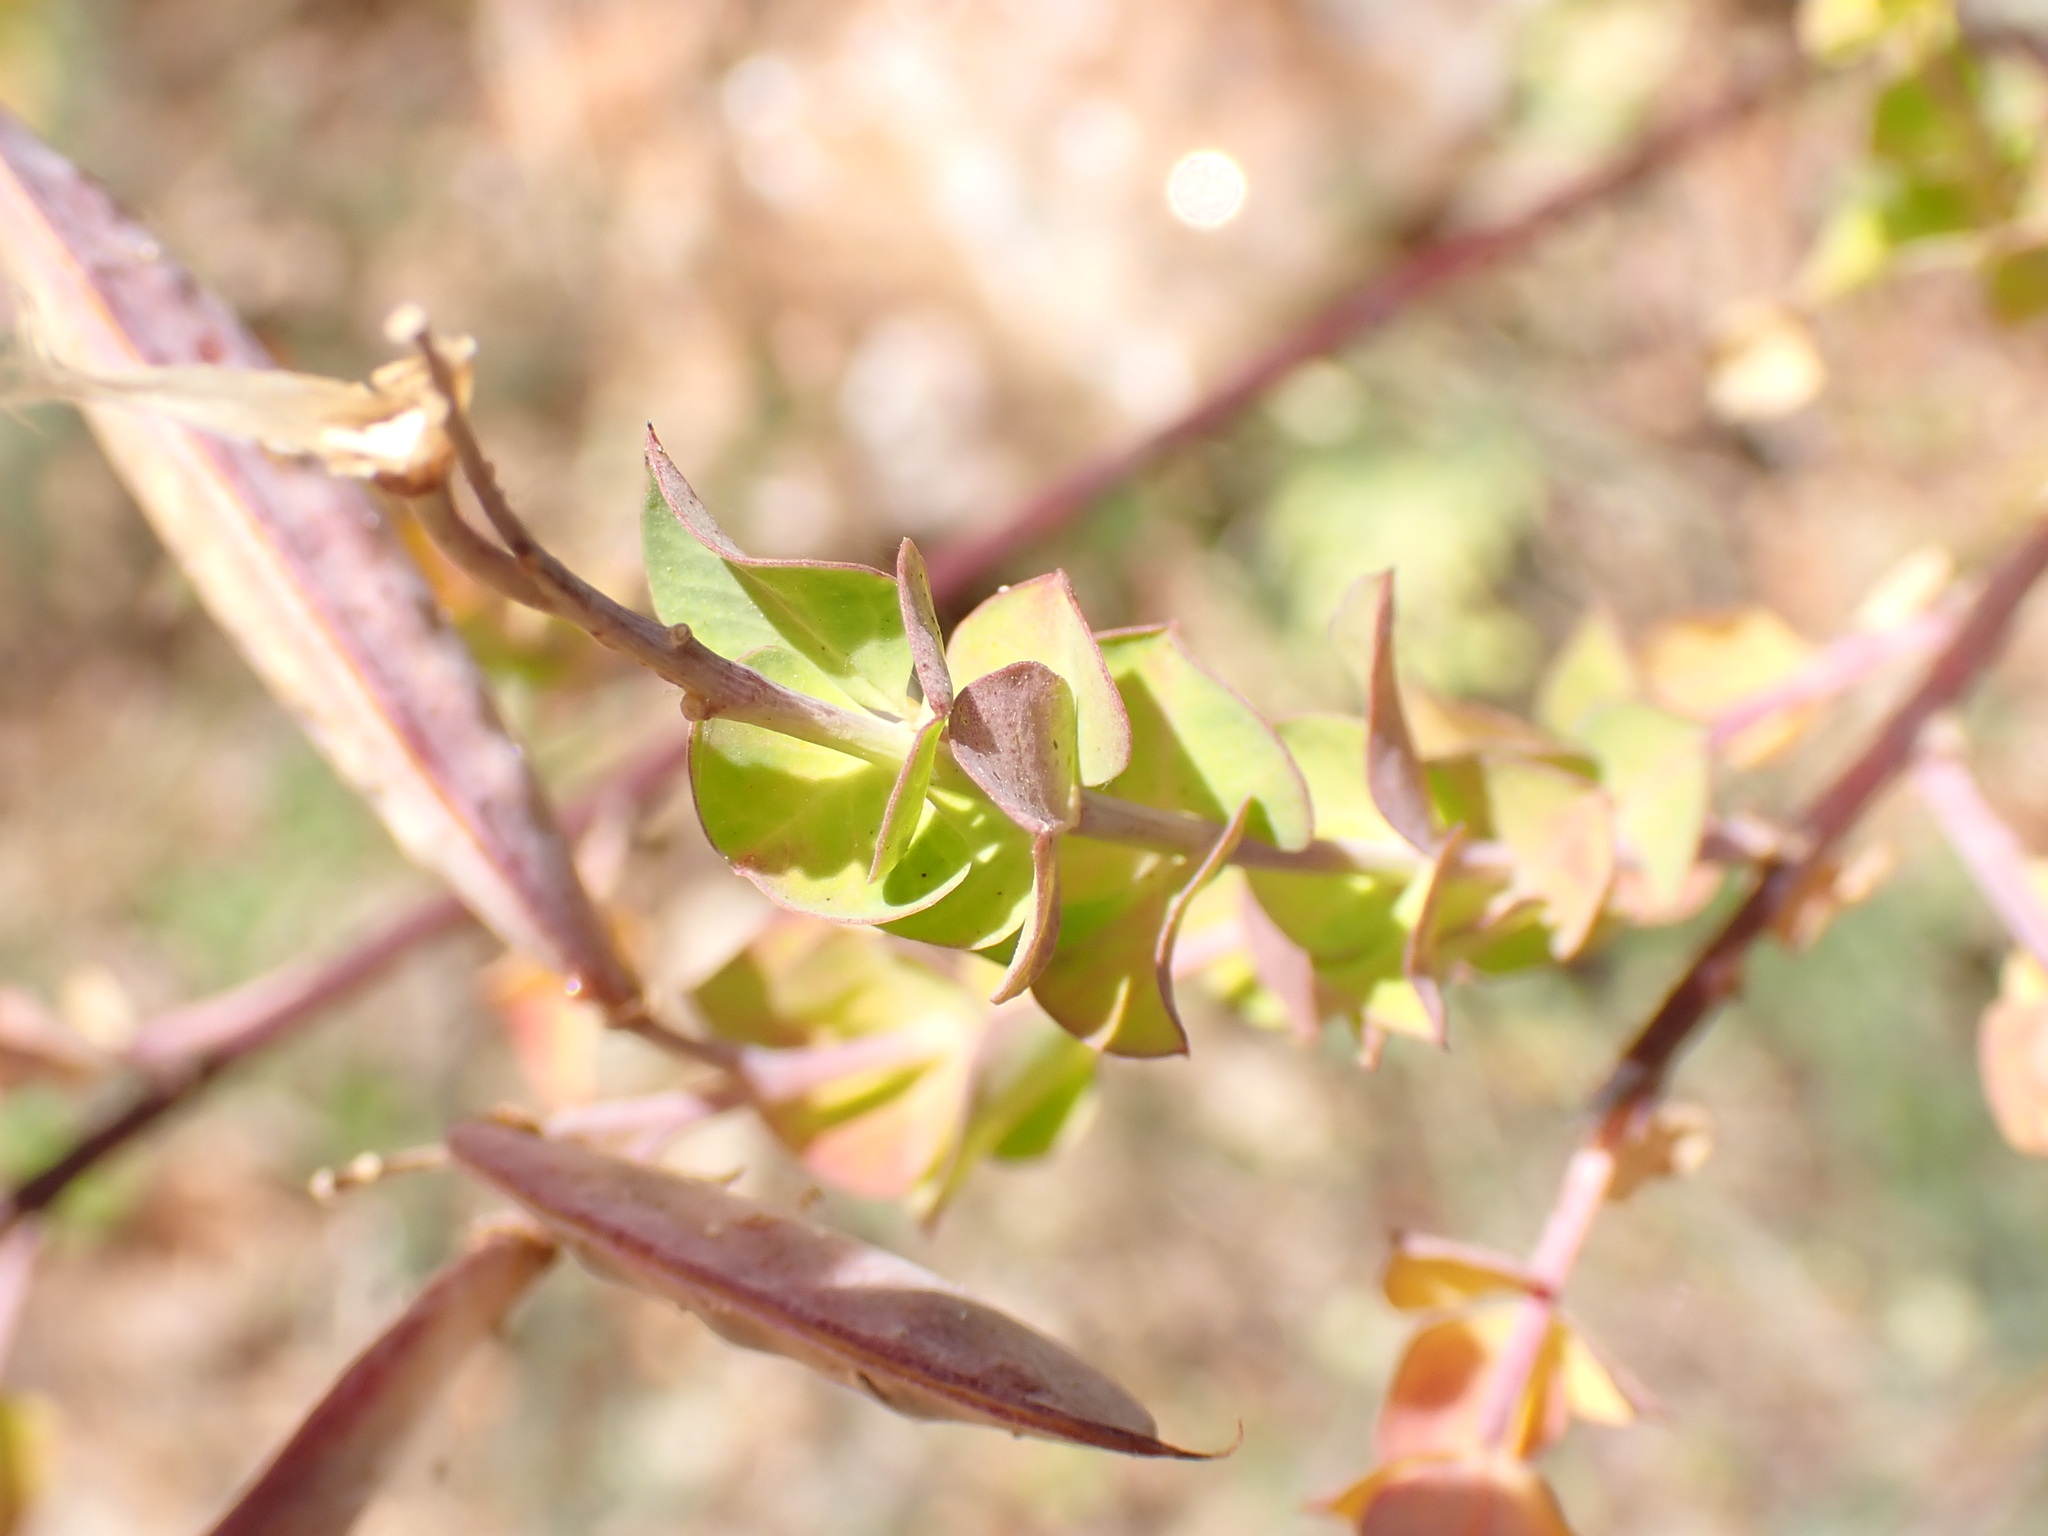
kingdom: Plantae
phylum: Tracheophyta
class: Magnoliopsida
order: Fabales
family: Fabaceae
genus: Cytisophyllum
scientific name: Cytisophyllum sessilifolium
